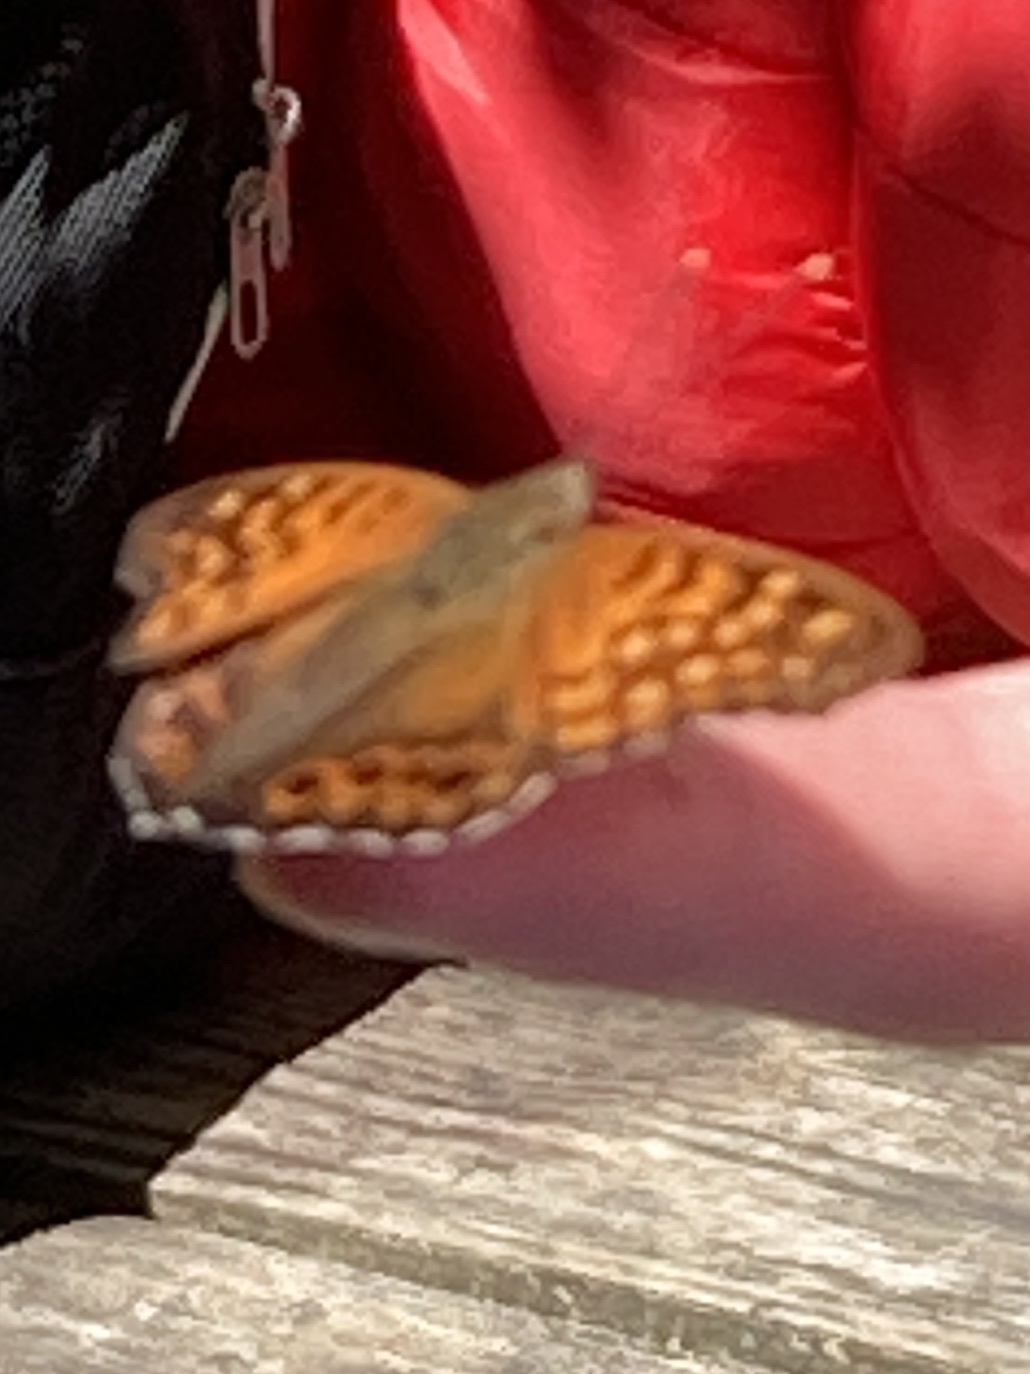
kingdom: Animalia
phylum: Arthropoda
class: Insecta
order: Lepidoptera
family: Nymphalidae
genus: Asterocampa
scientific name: Asterocampa clyton
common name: Tawny emperor
